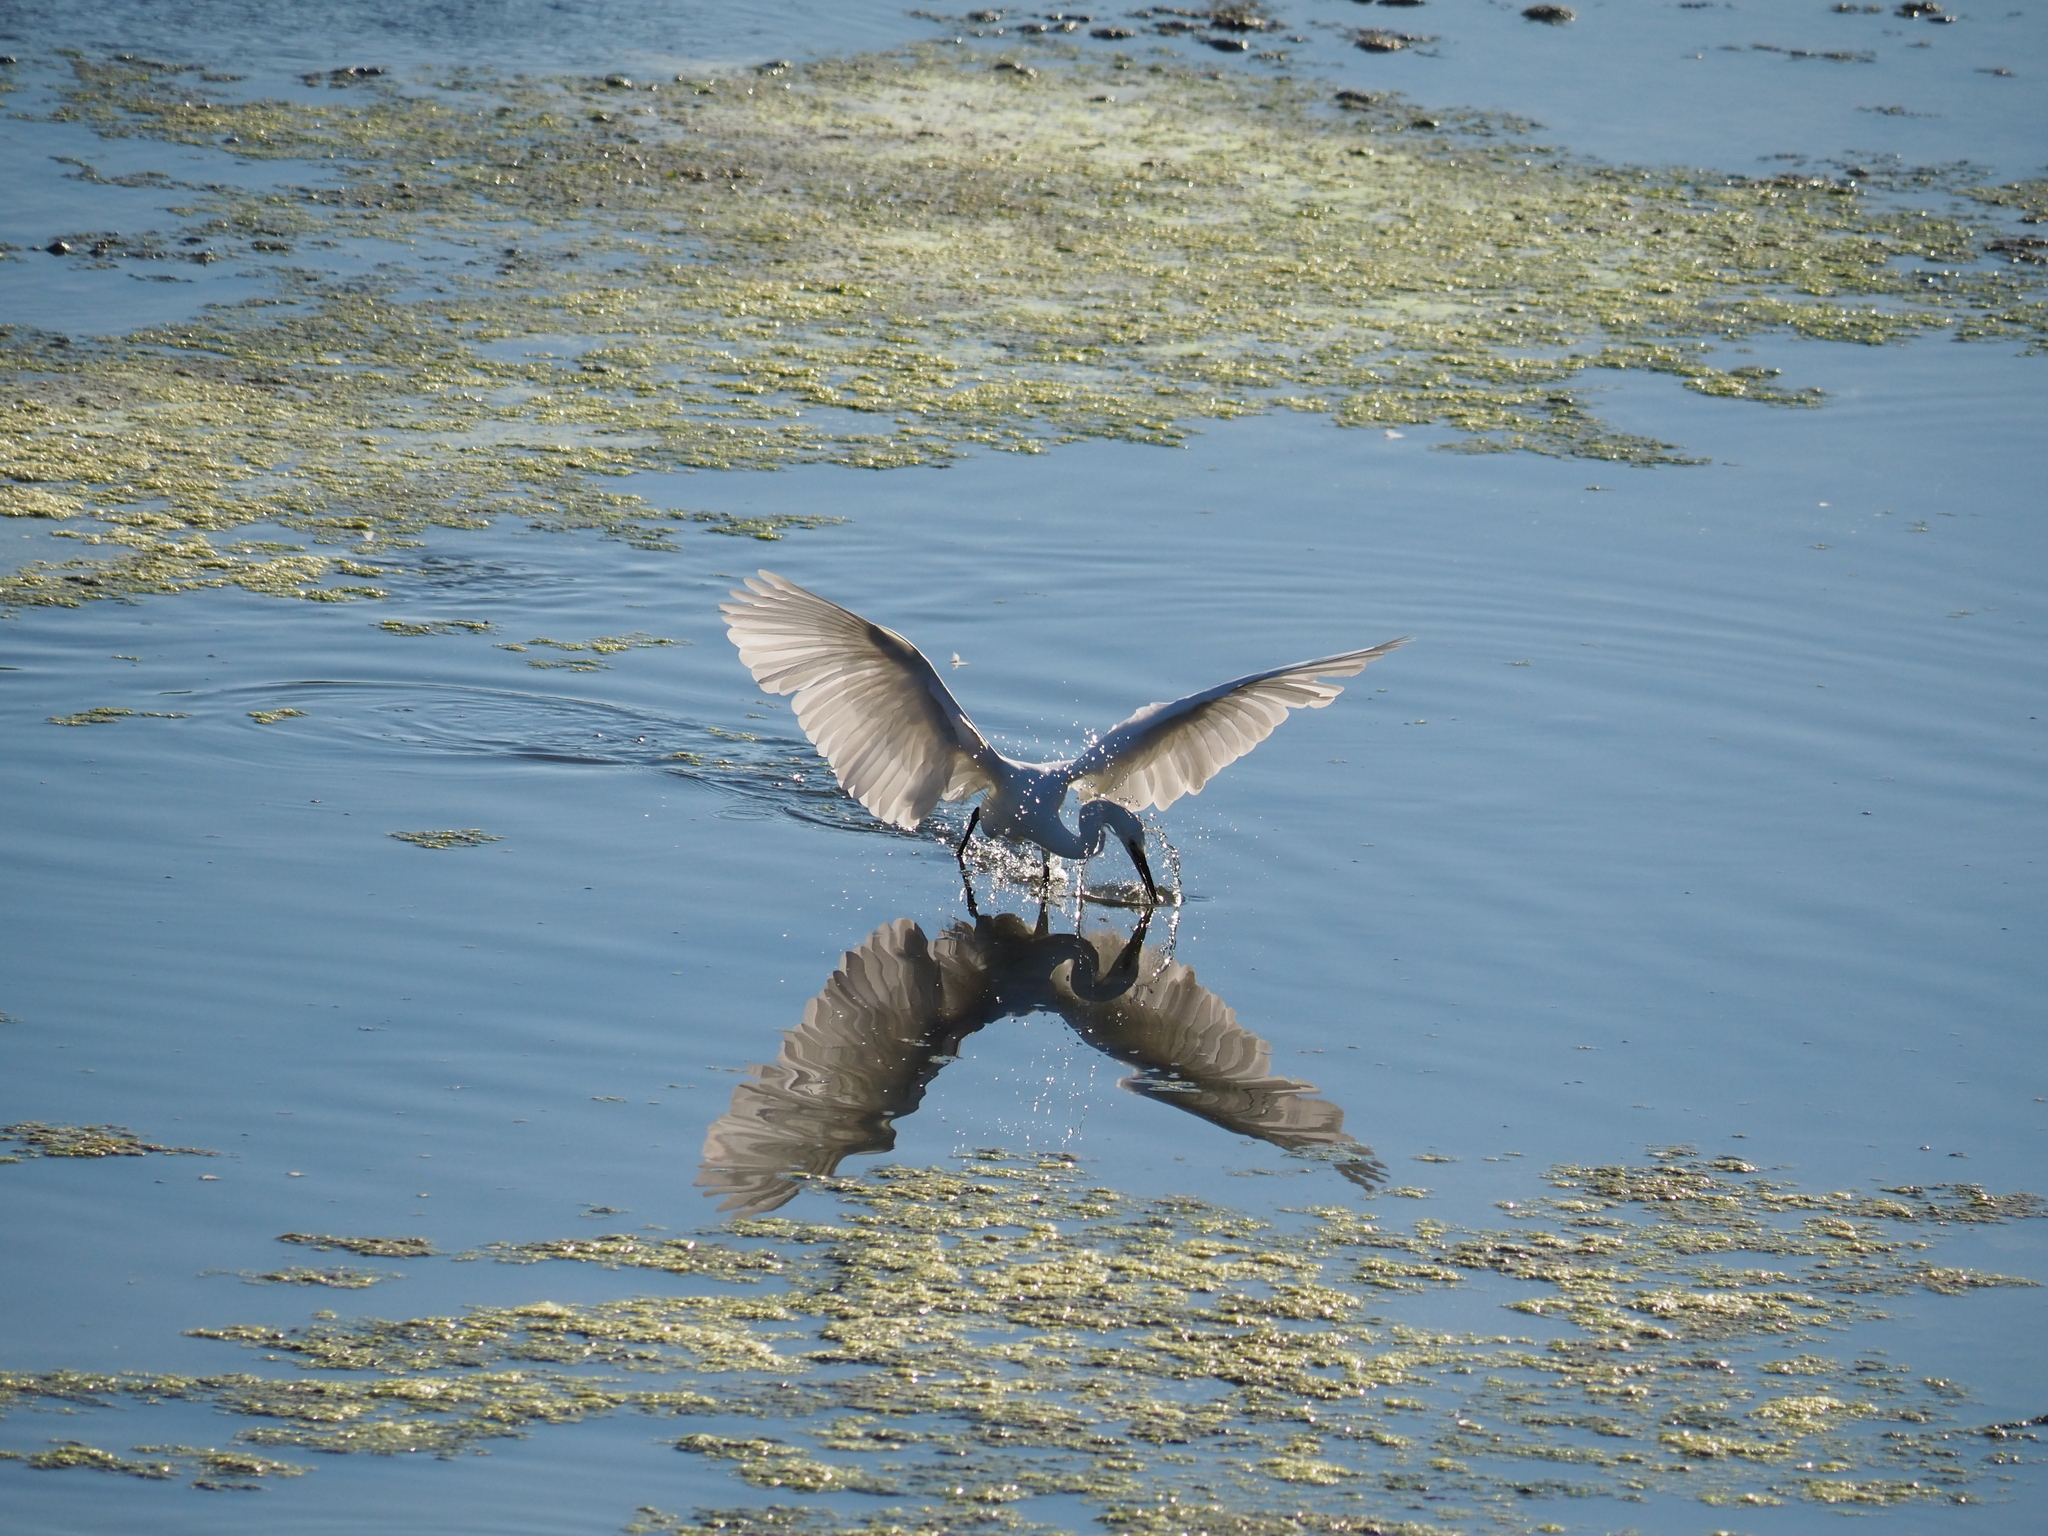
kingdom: Animalia
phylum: Chordata
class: Aves
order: Pelecaniformes
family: Ardeidae
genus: Egretta
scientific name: Egretta garzetta
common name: Little egret
